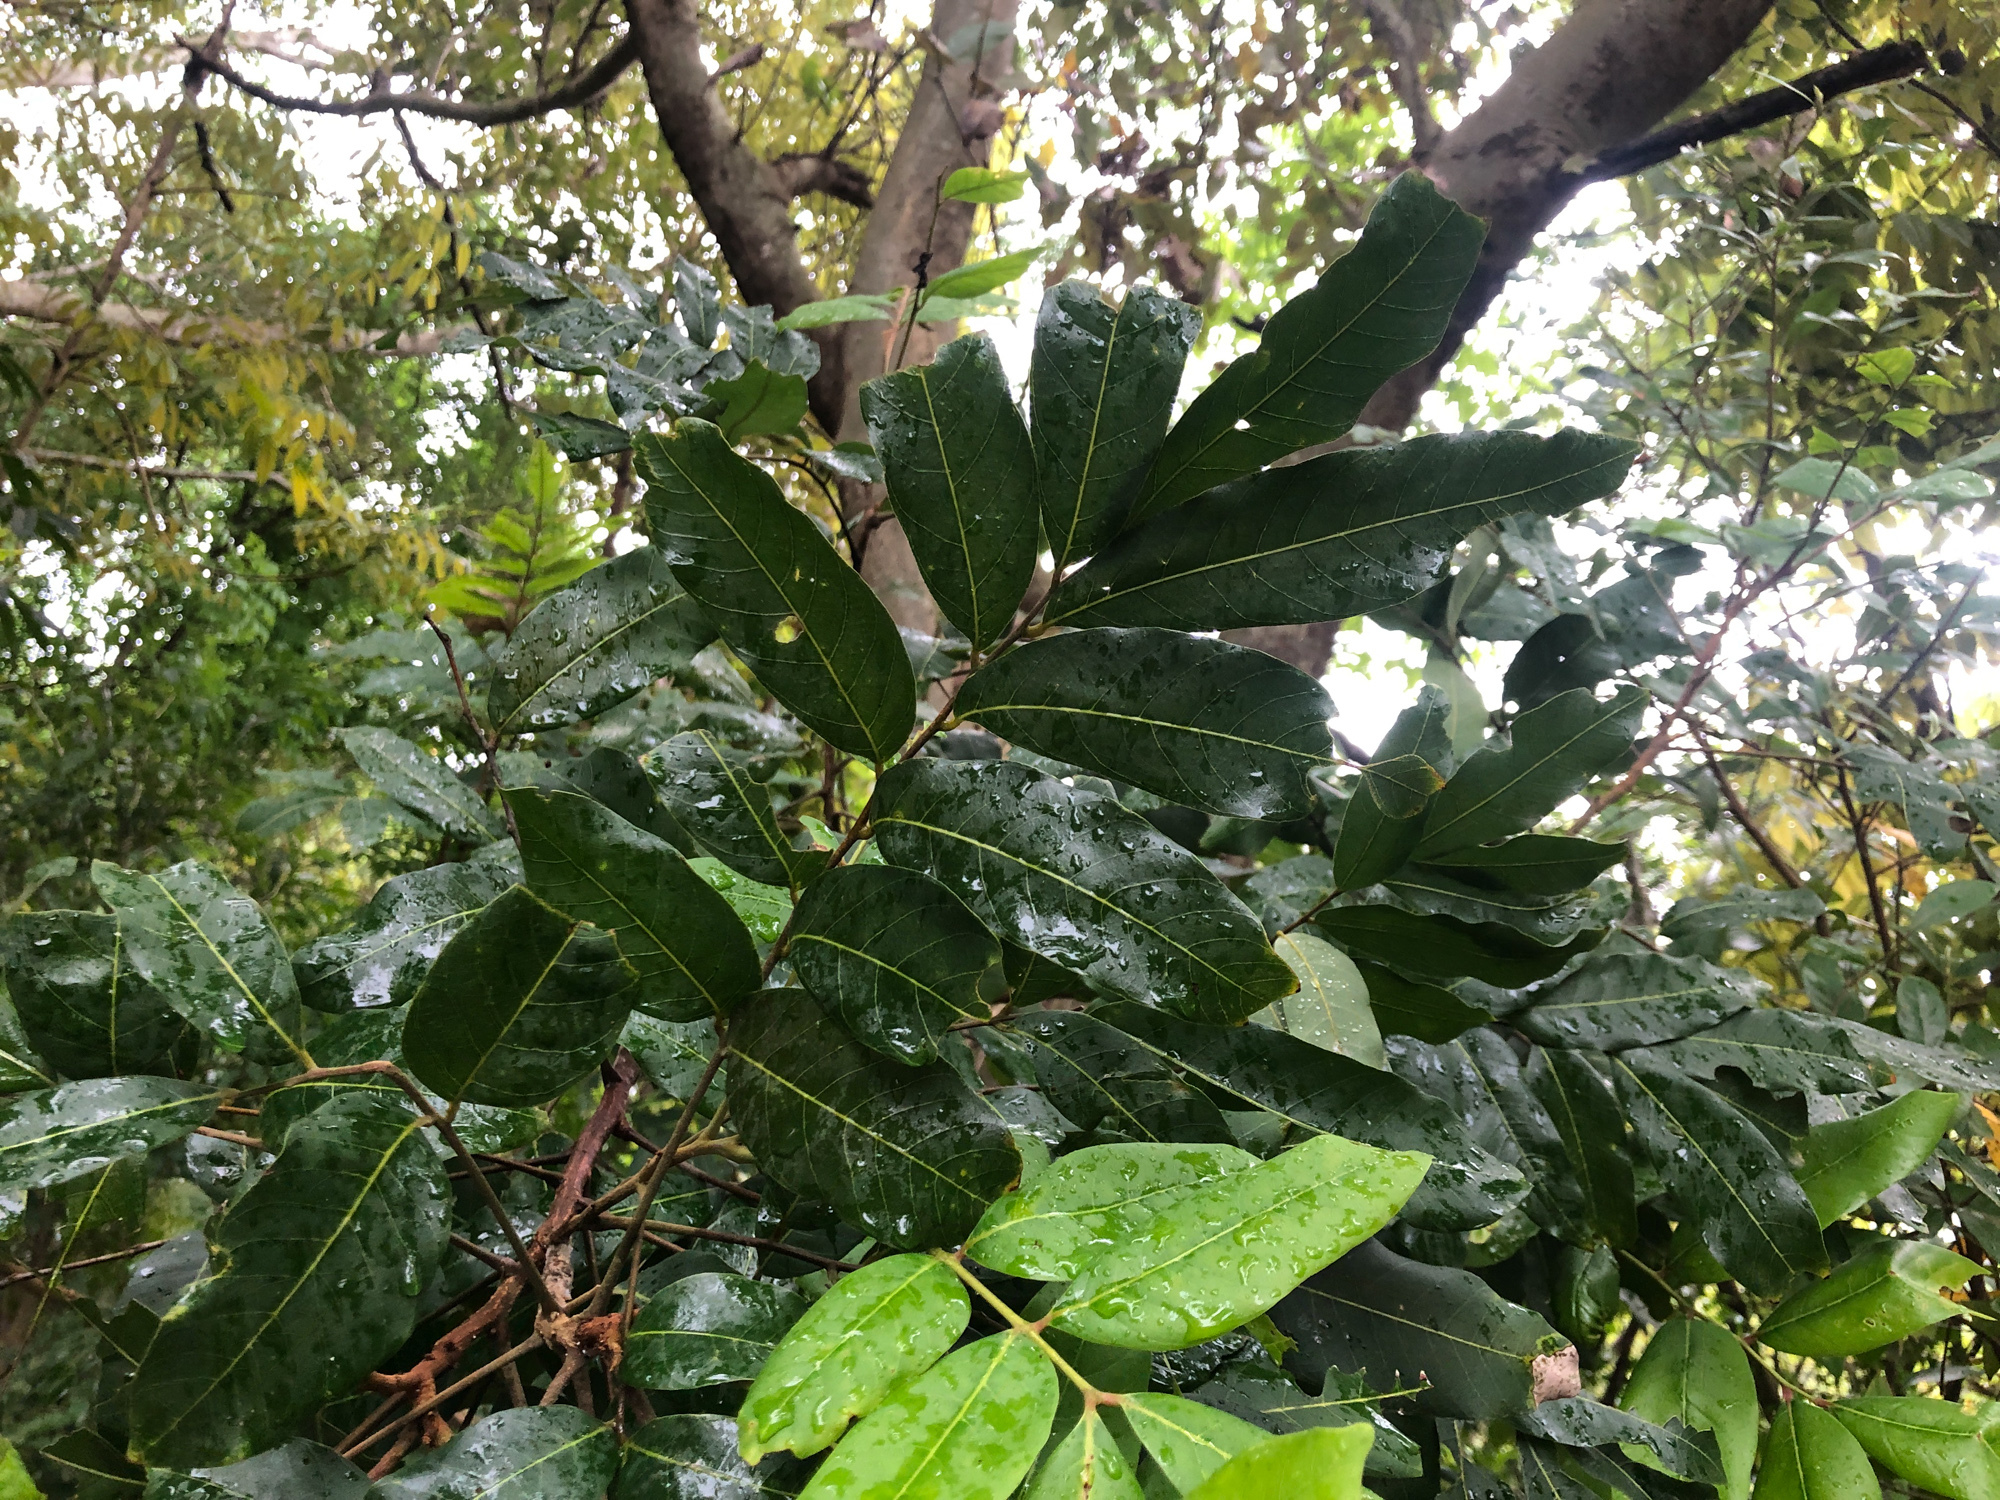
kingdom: Plantae
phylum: Tracheophyta
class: Magnoliopsida
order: Sapindales
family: Sapindaceae
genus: Dimocarpus
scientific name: Dimocarpus longan
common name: Longan
